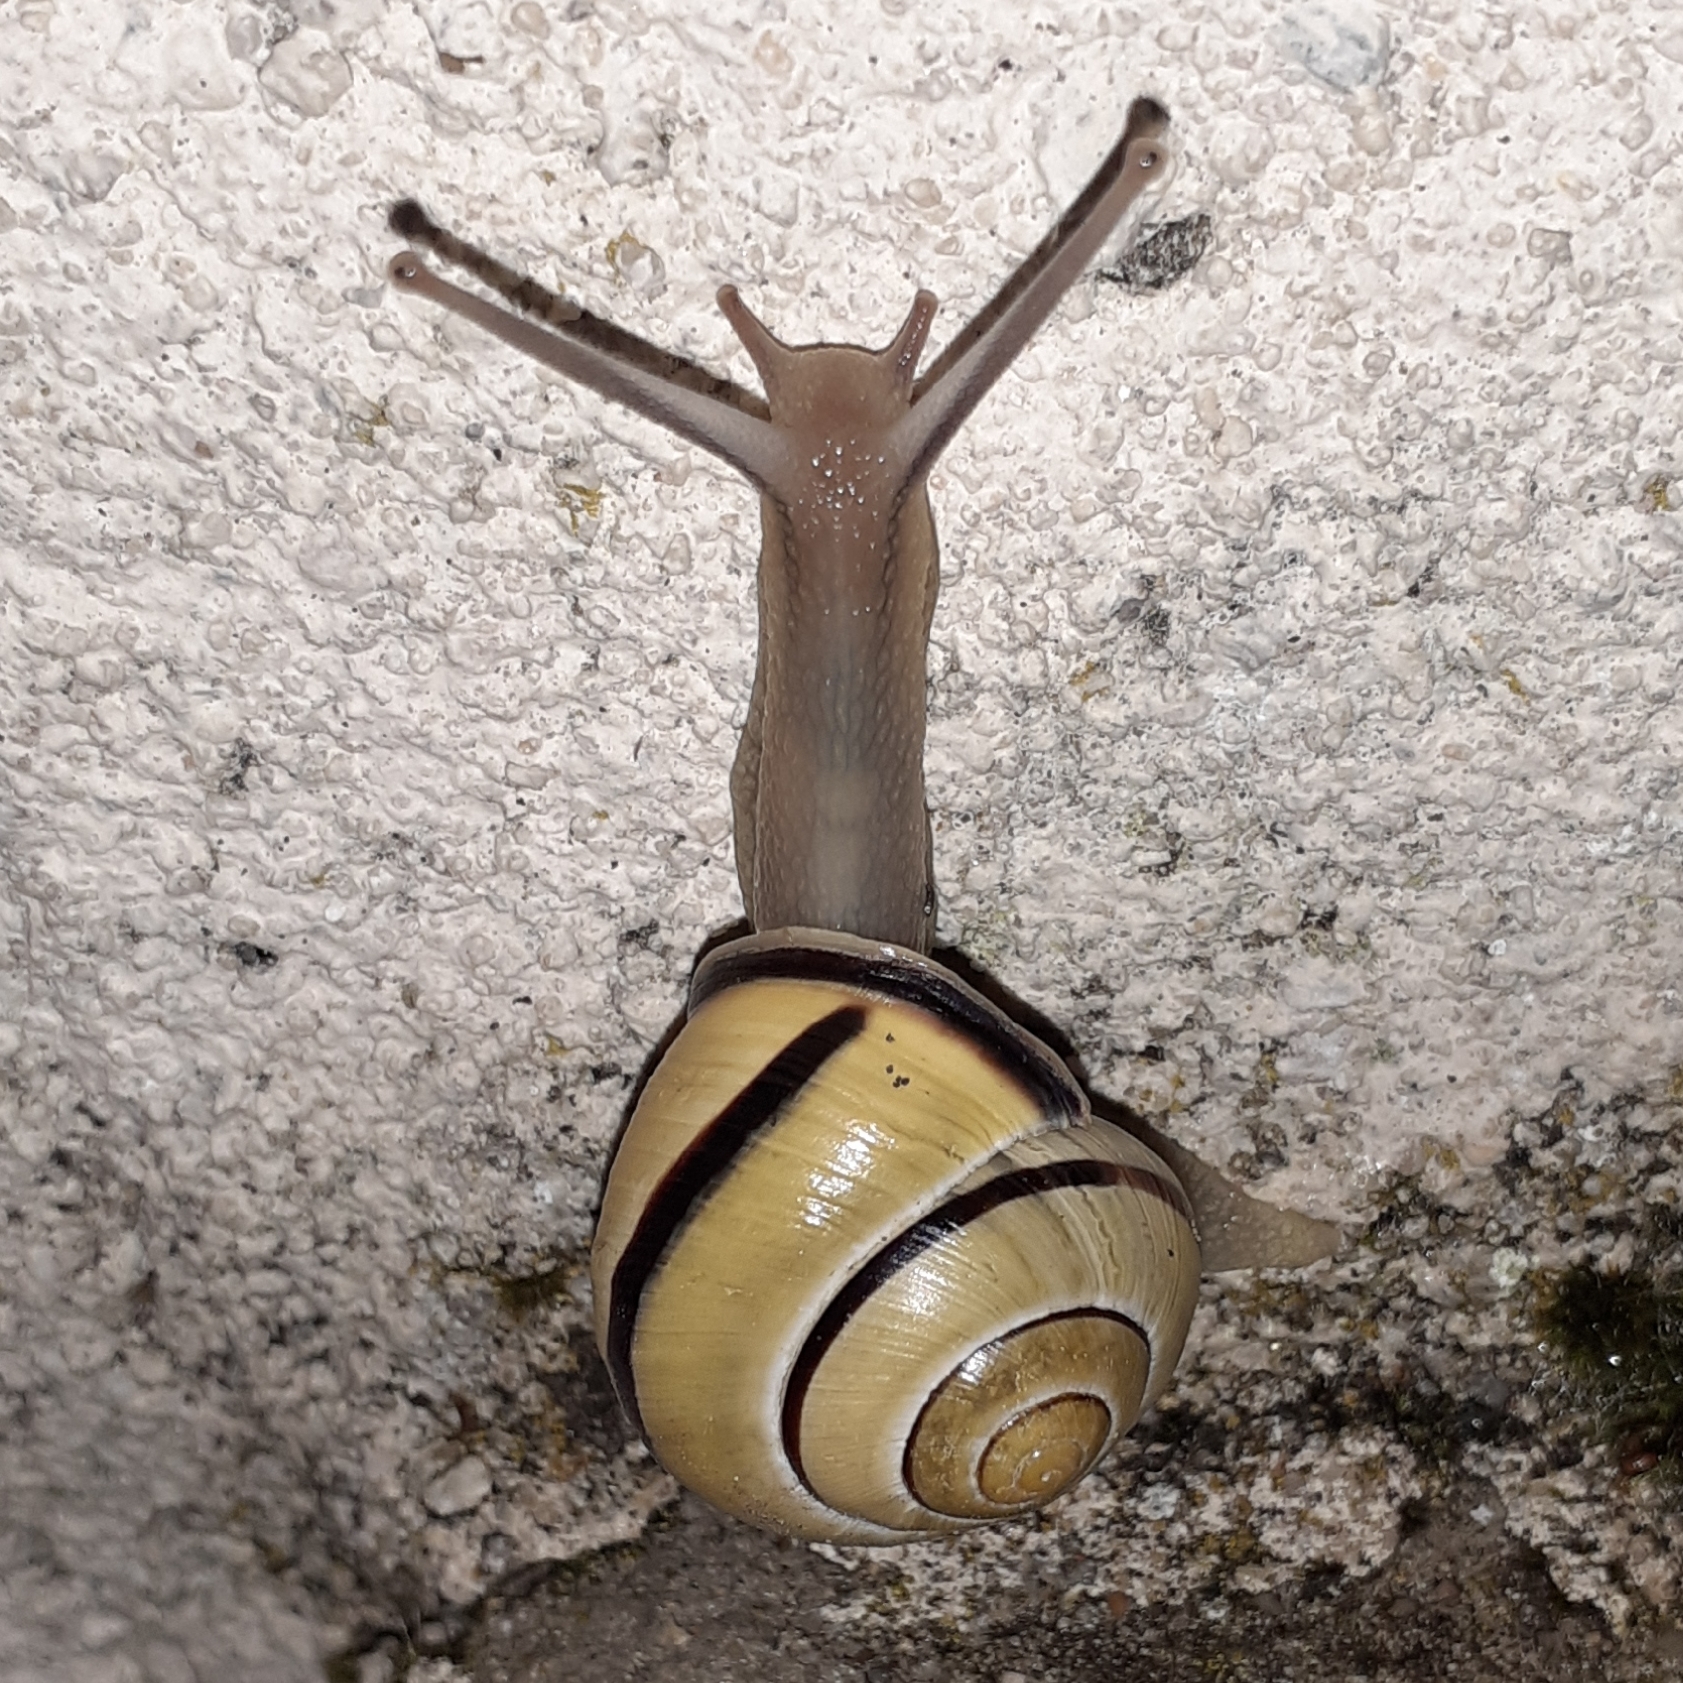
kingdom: Animalia
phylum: Mollusca
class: Gastropoda
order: Stylommatophora
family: Helicidae
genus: Cepaea
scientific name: Cepaea nemoralis
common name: Grovesnail
